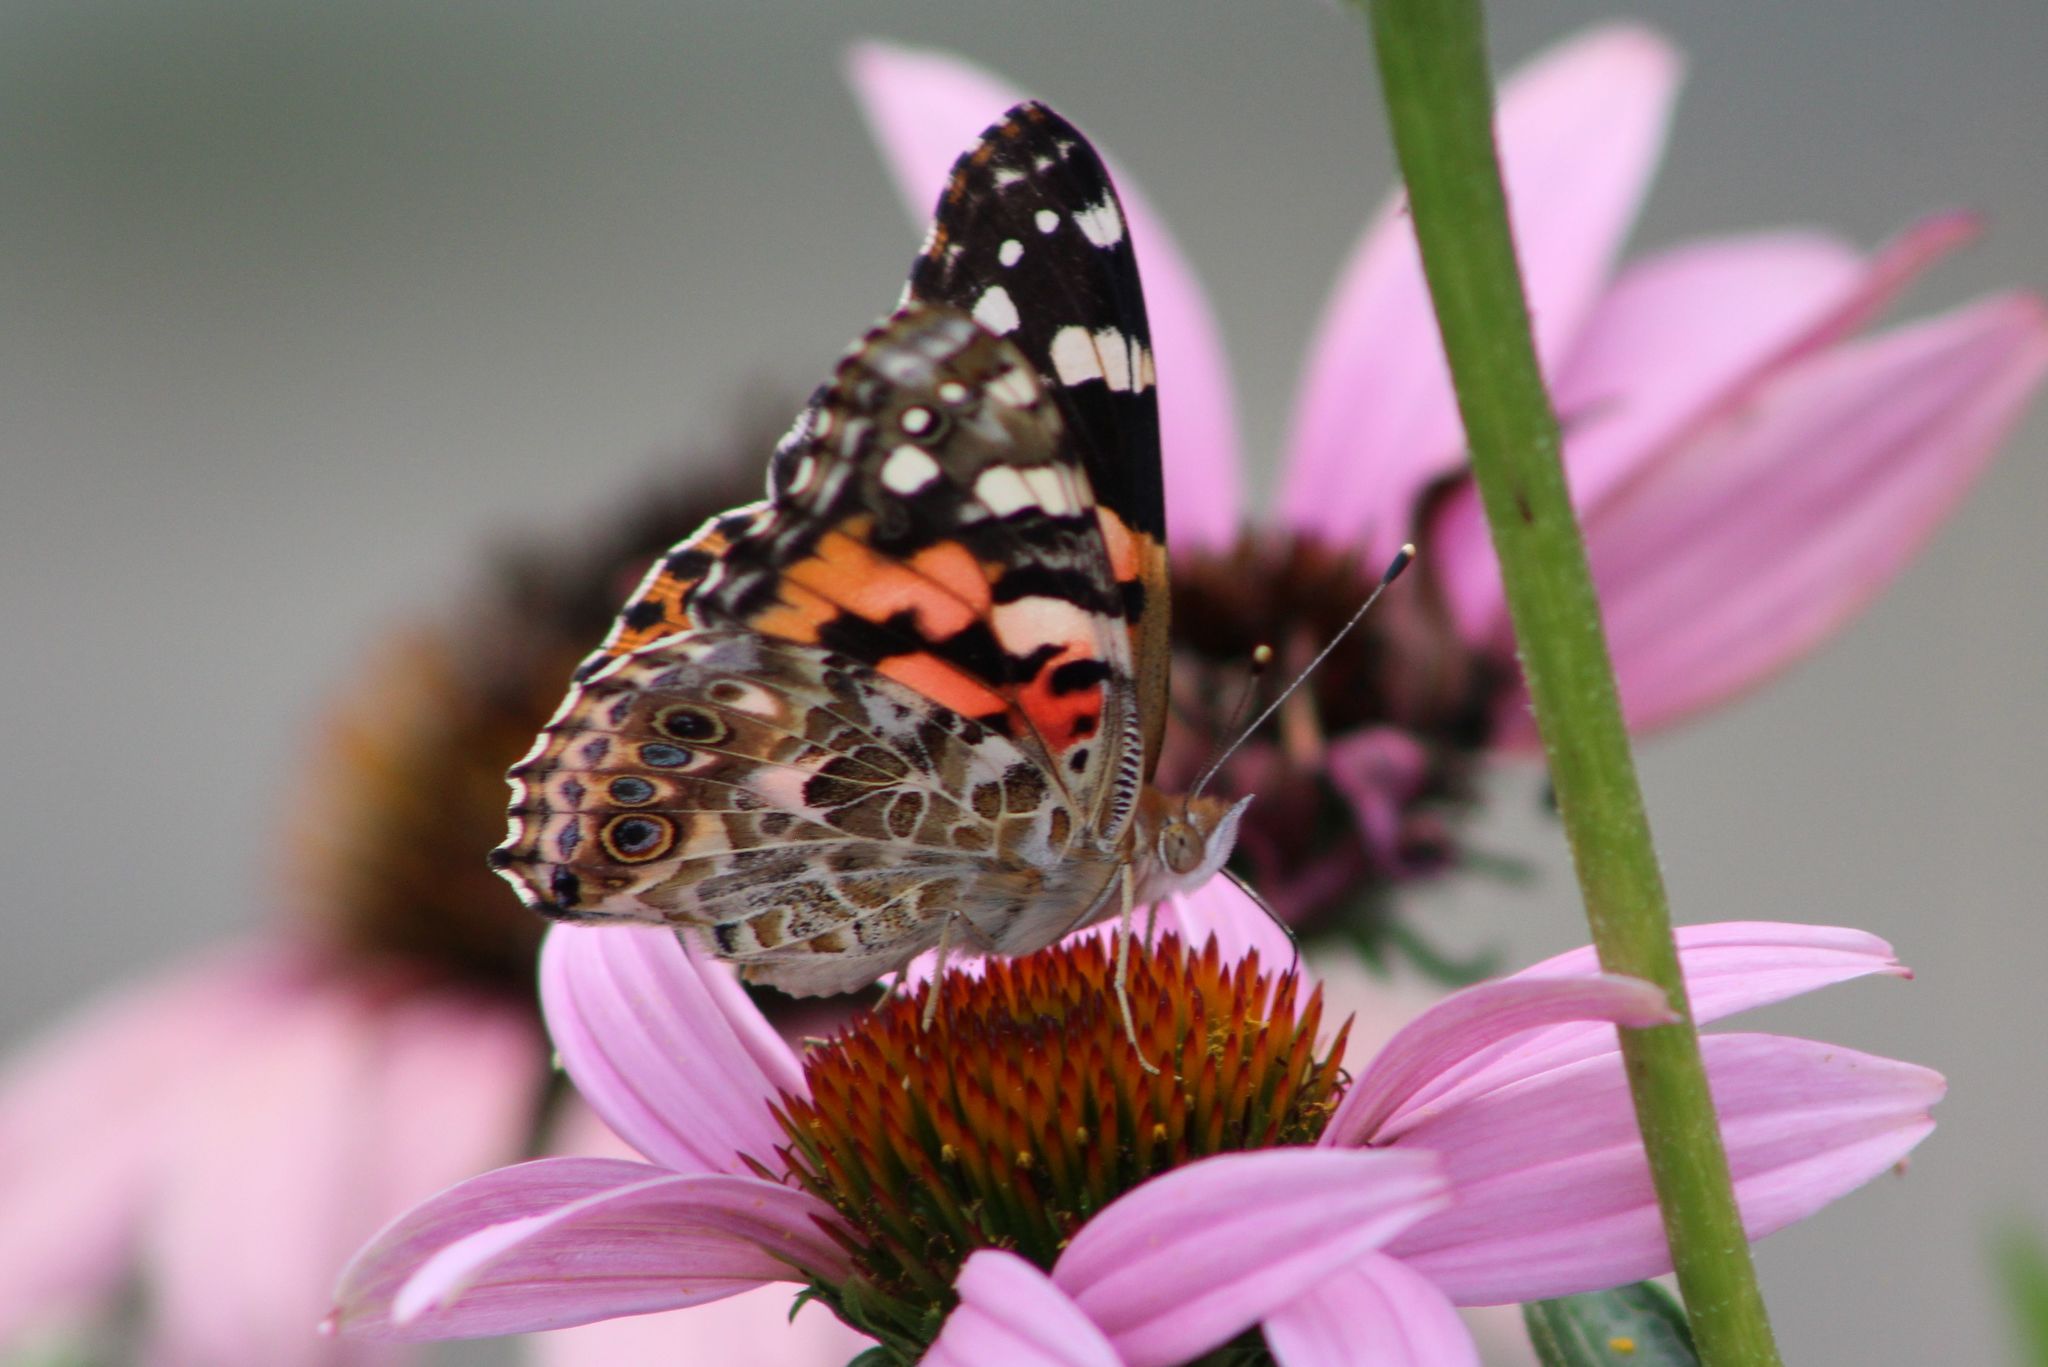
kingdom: Animalia
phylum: Arthropoda
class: Insecta
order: Lepidoptera
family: Nymphalidae
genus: Vanessa
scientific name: Vanessa cardui
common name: Painted lady
